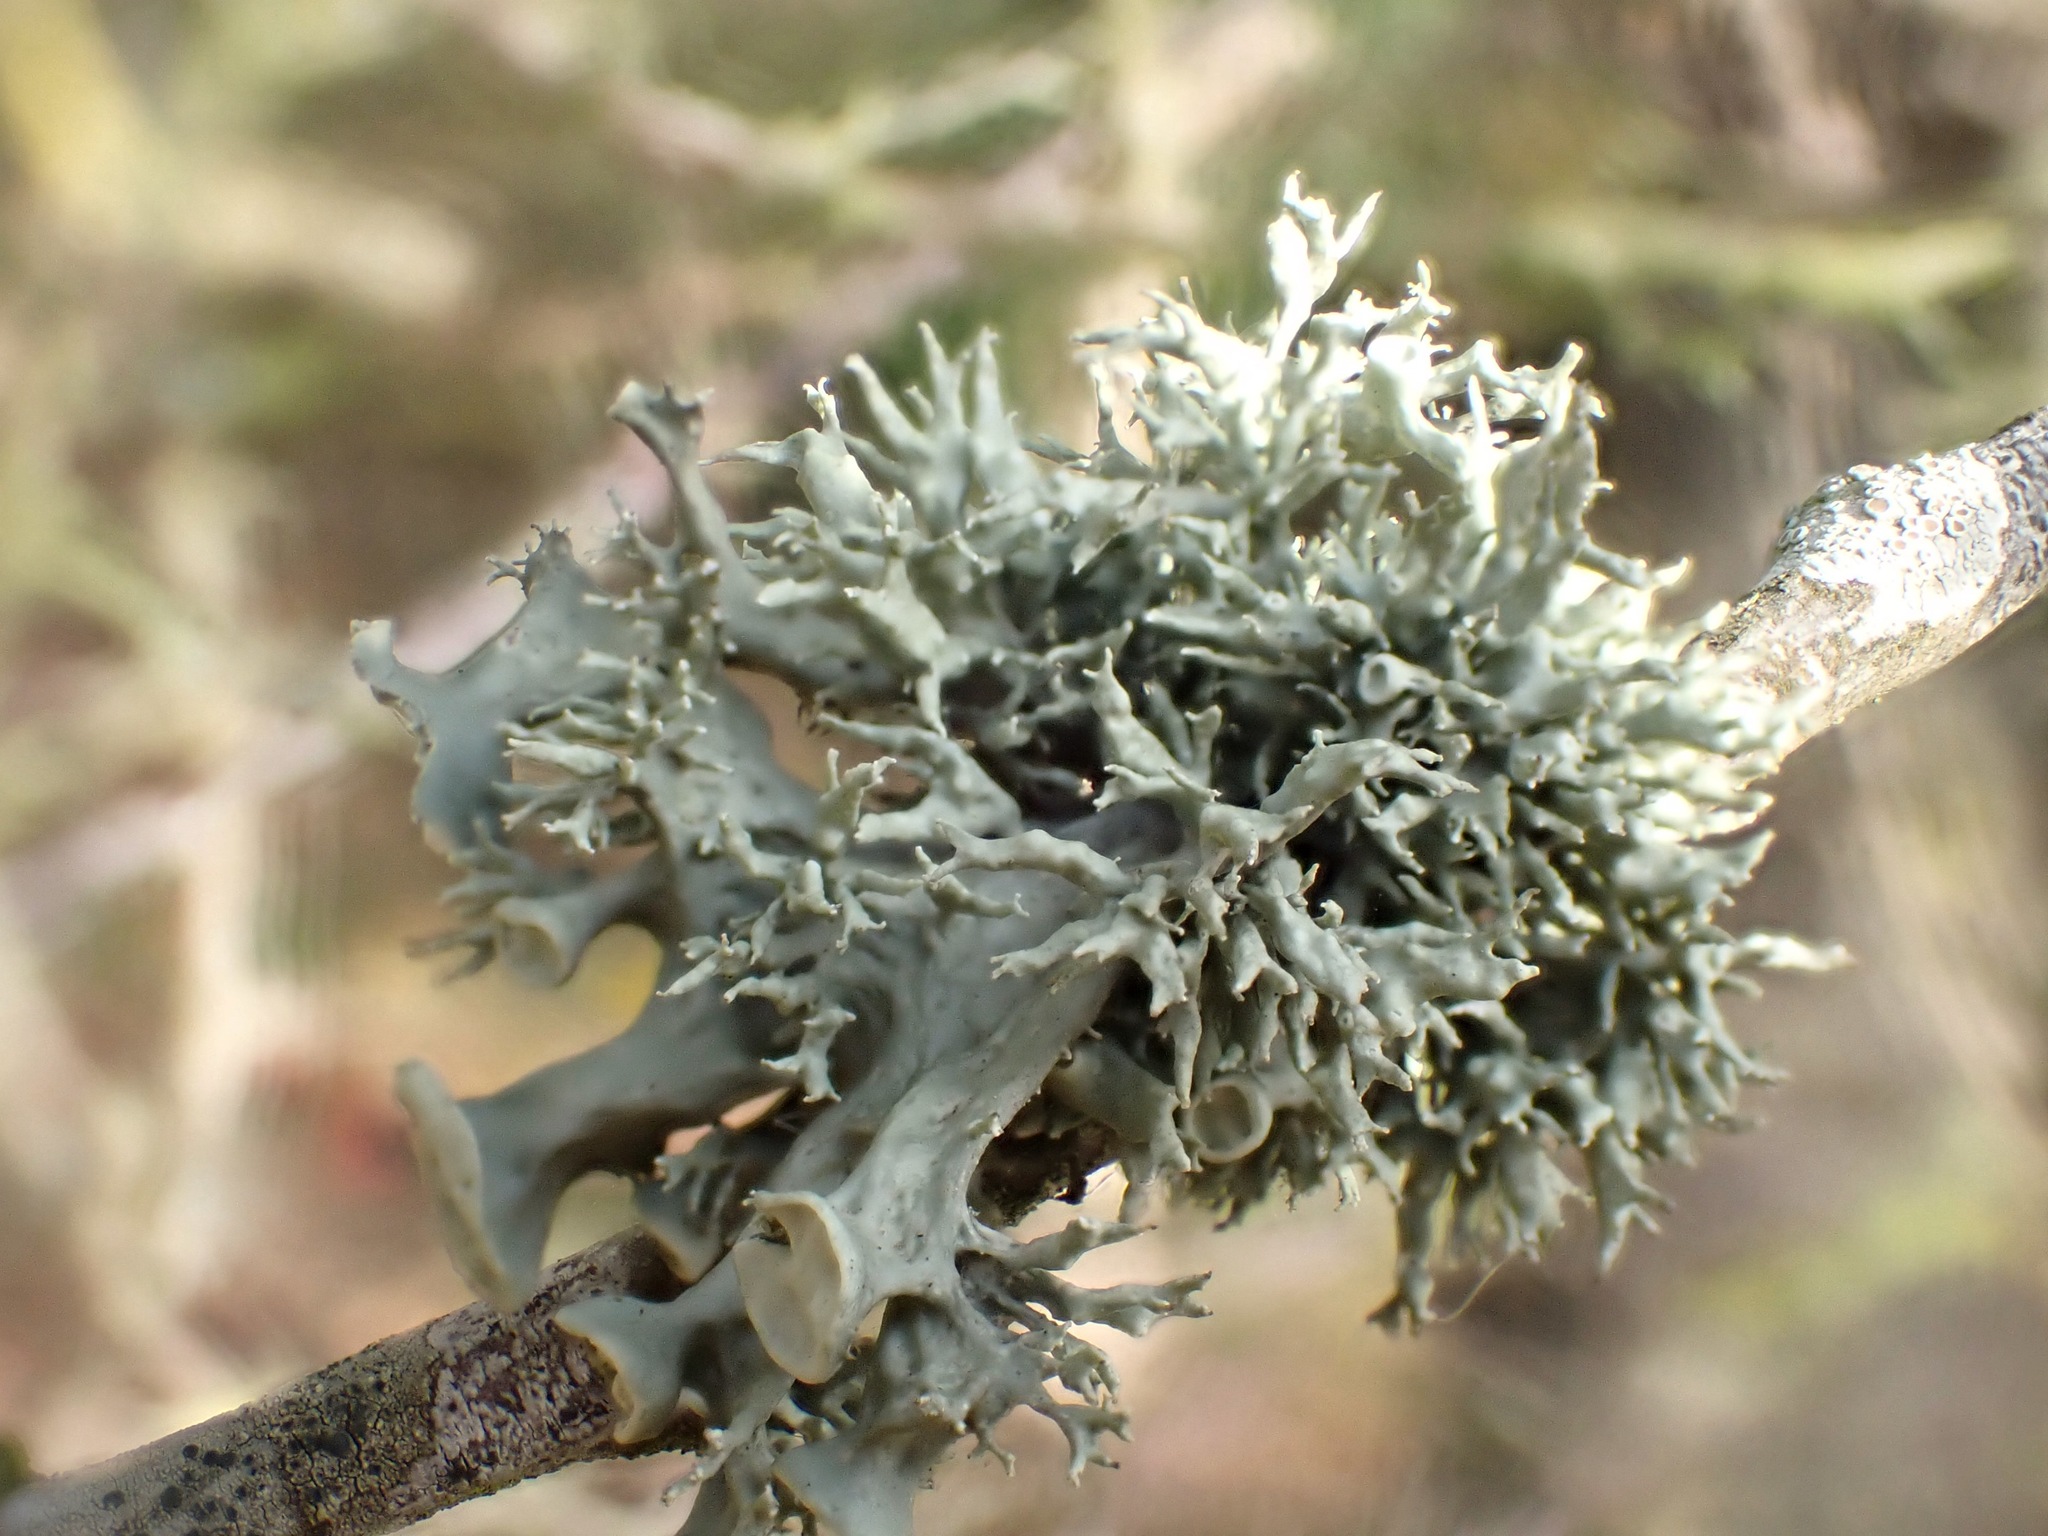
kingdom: Fungi
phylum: Ascomycota
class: Lecanoromycetes
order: Lecanorales
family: Ramalinaceae
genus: Ramalina
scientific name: Ramalina fastigiata
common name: Dotted ribbon lichen
